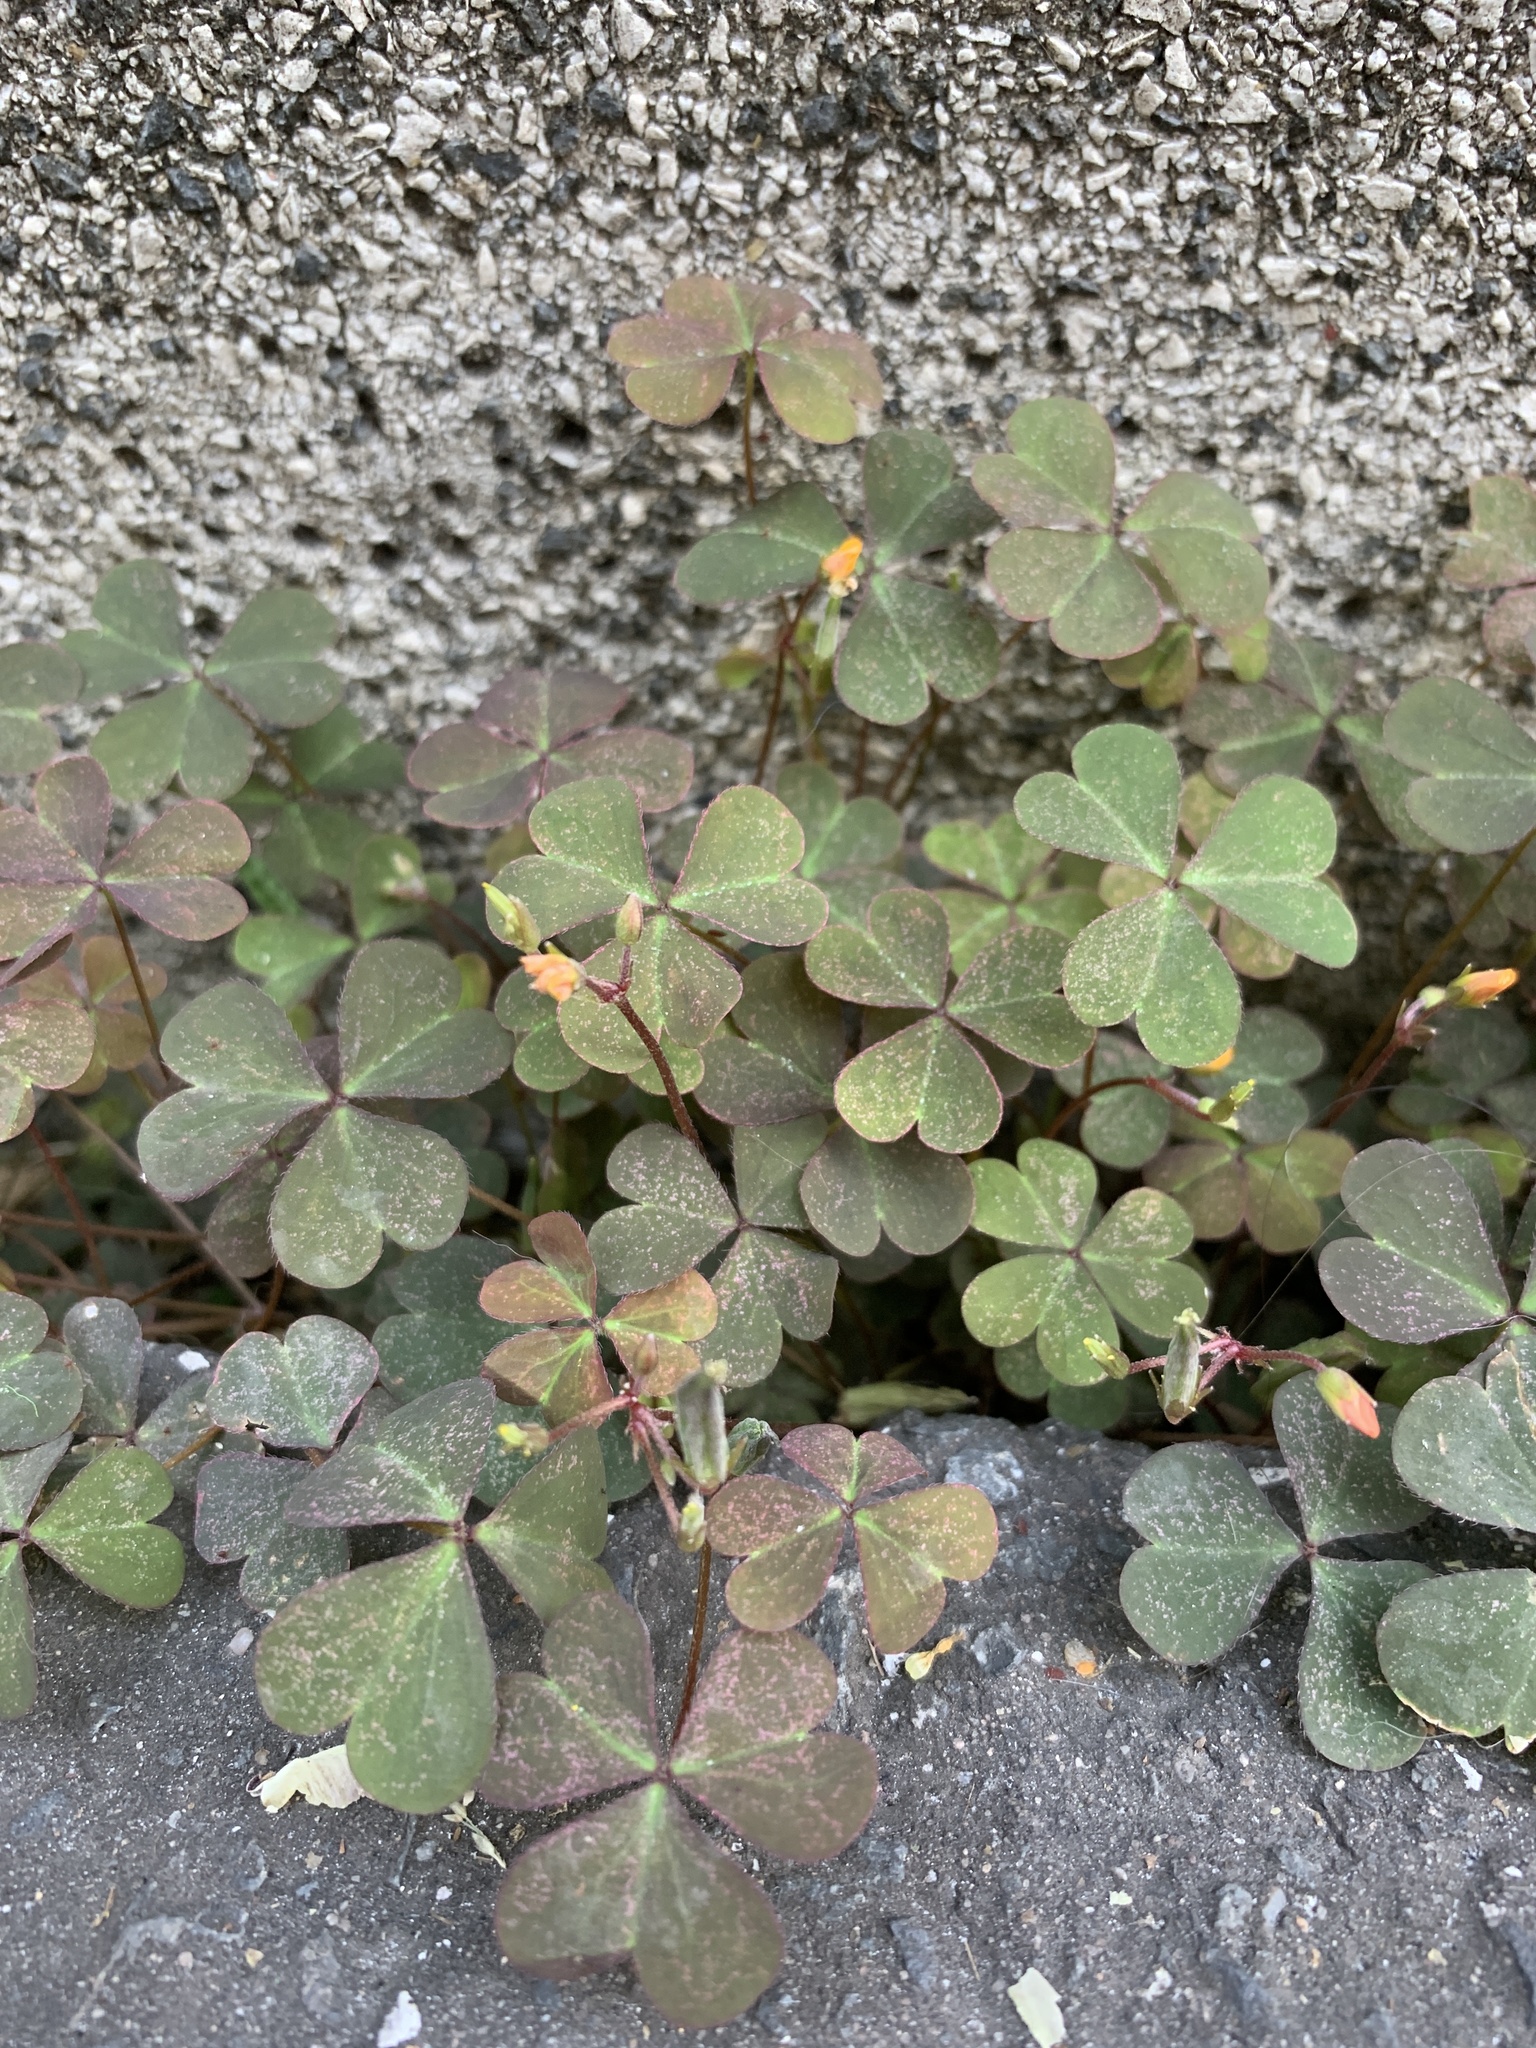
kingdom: Plantae
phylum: Tracheophyta
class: Magnoliopsida
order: Oxalidales
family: Oxalidaceae
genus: Oxalis
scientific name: Oxalis corniculata
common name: Procumbent yellow-sorrel
